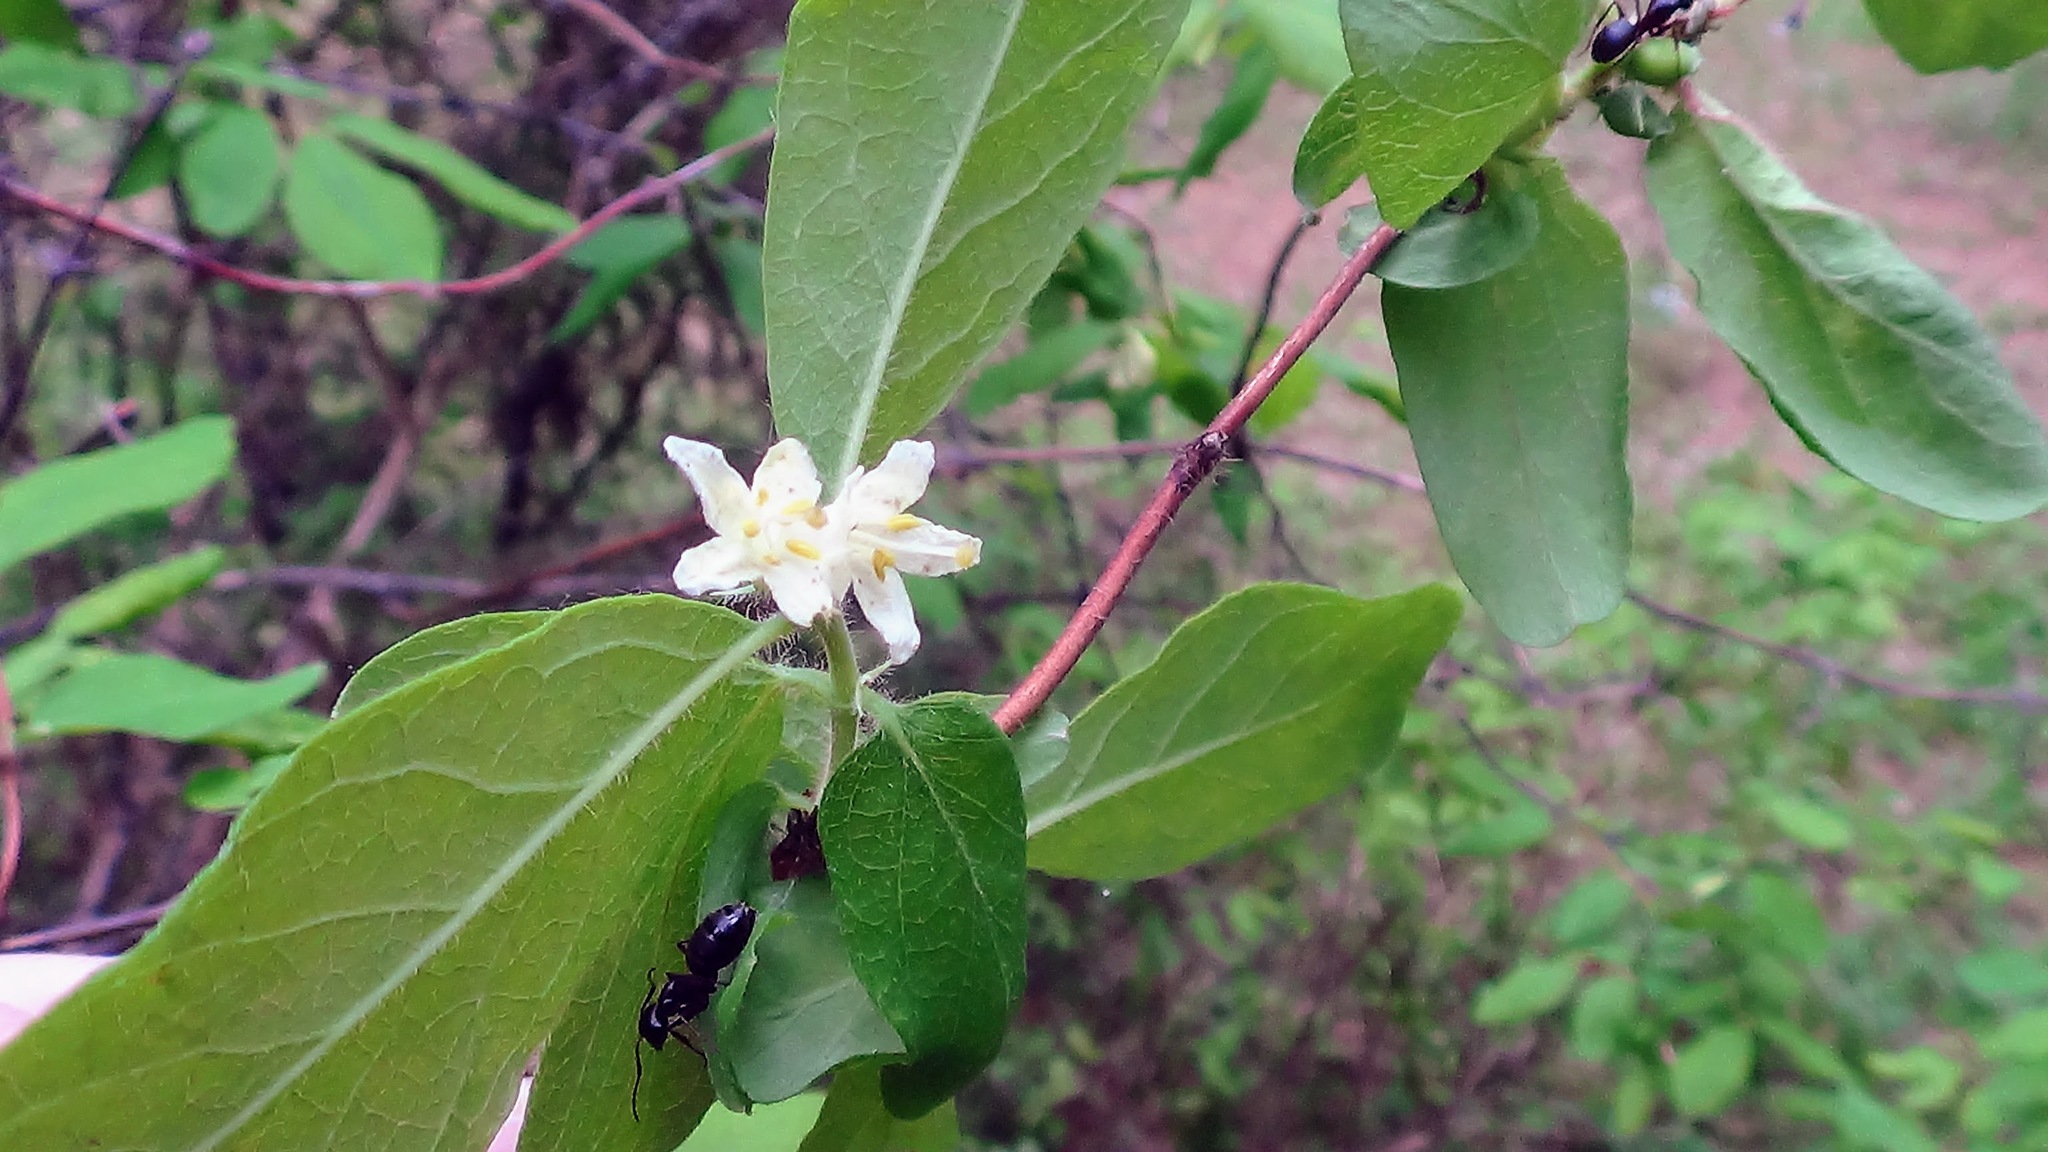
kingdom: Plantae
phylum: Tracheophyta
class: Magnoliopsida
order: Dipsacales
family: Caprifoliaceae
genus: Lonicera
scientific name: Lonicera caerulea
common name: Blue honeysuckle
